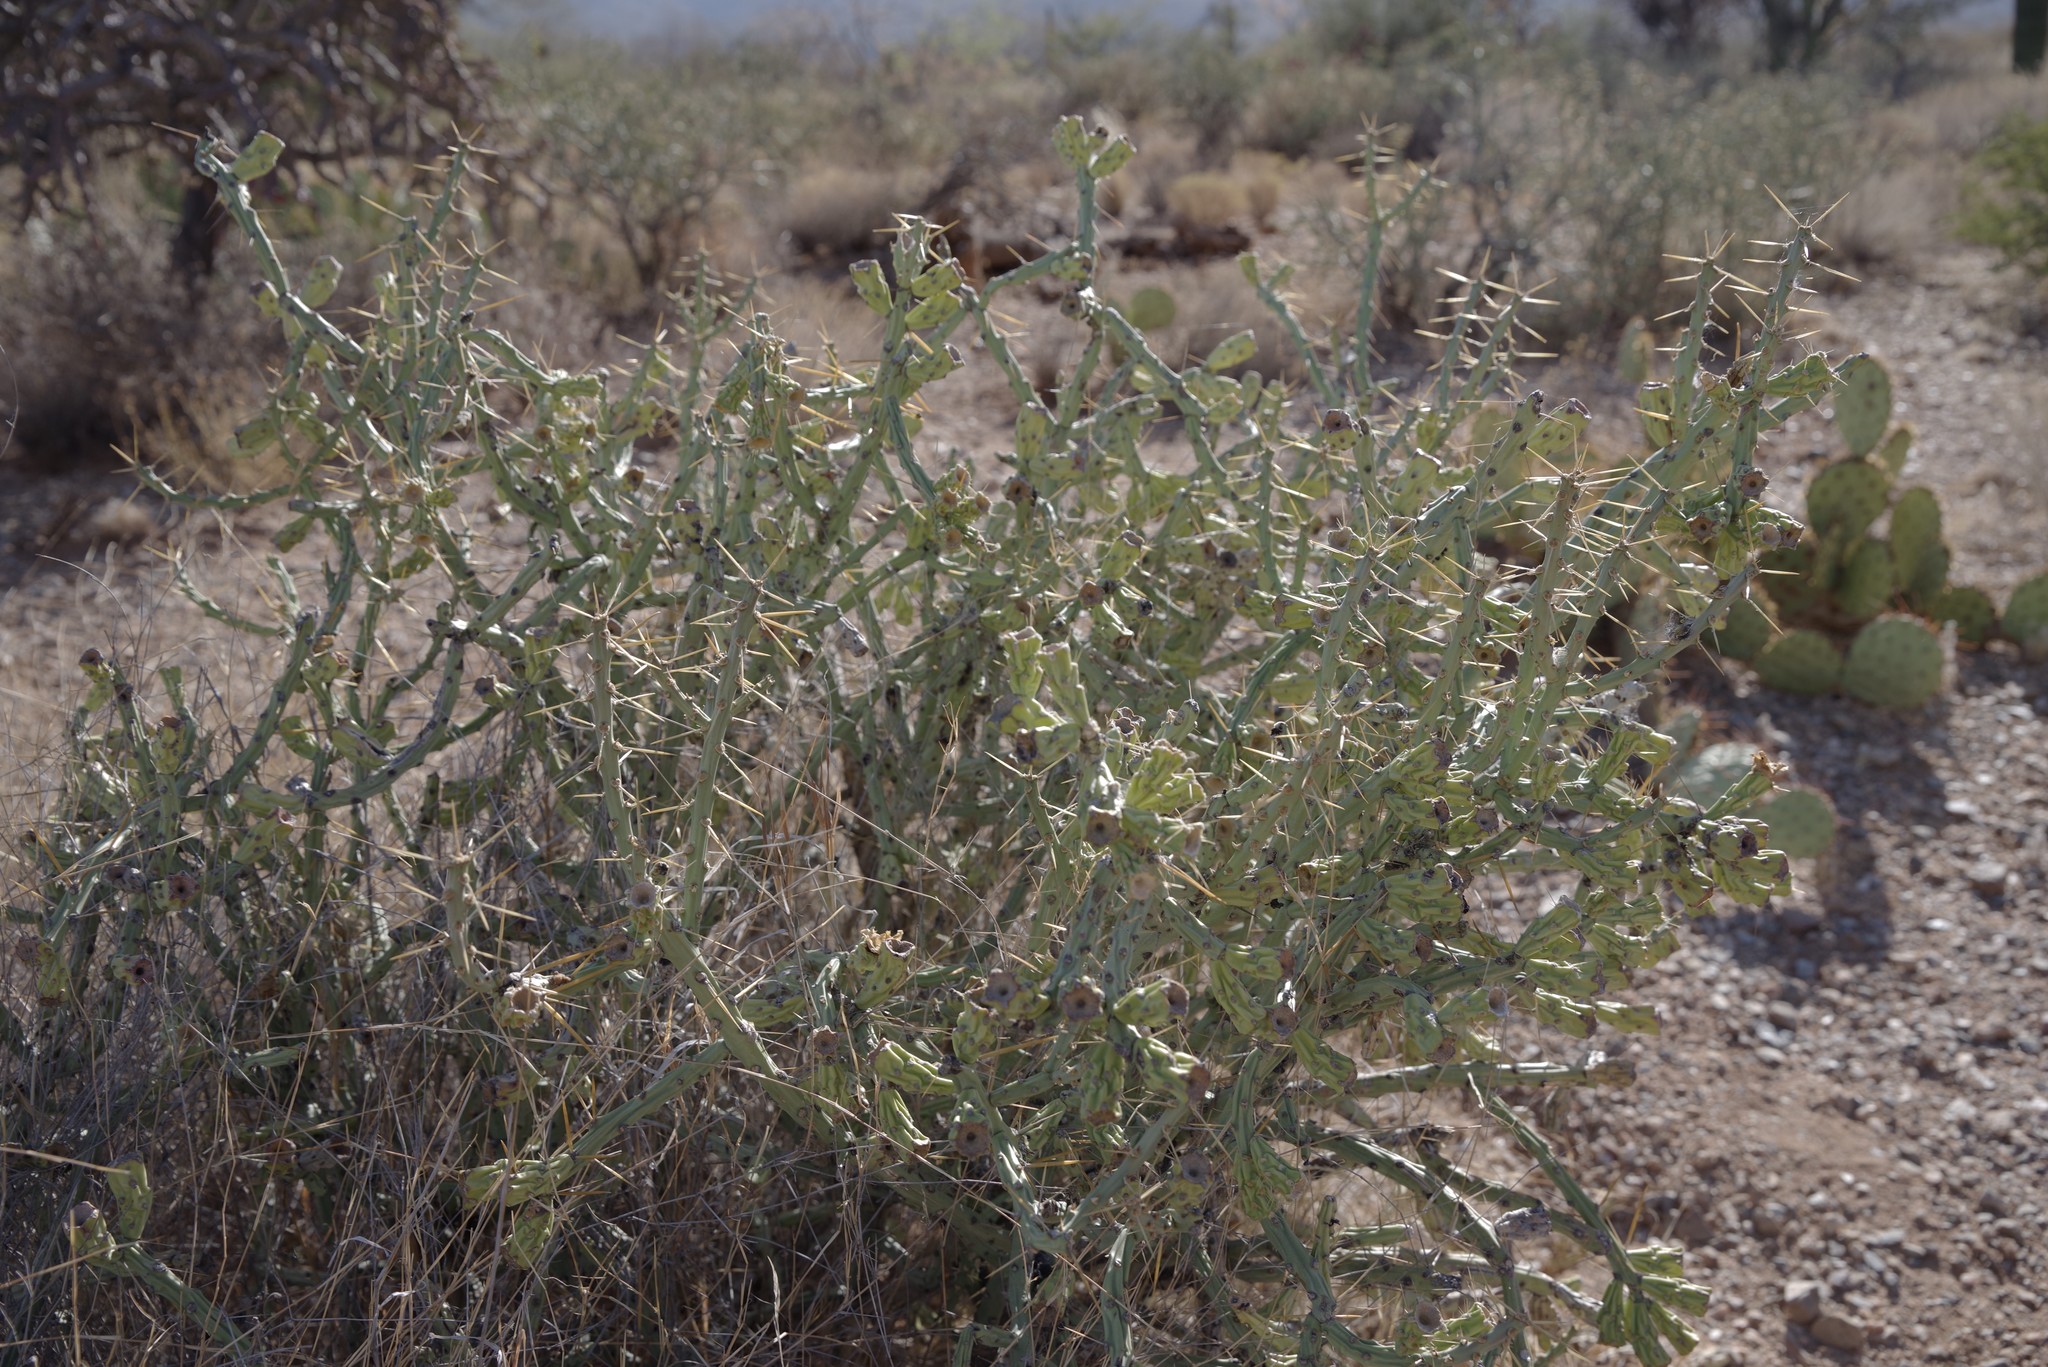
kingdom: Plantae
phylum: Tracheophyta
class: Magnoliopsida
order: Caryophyllales
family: Cactaceae
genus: Cylindropuntia
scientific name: Cylindropuntia arbuscula
